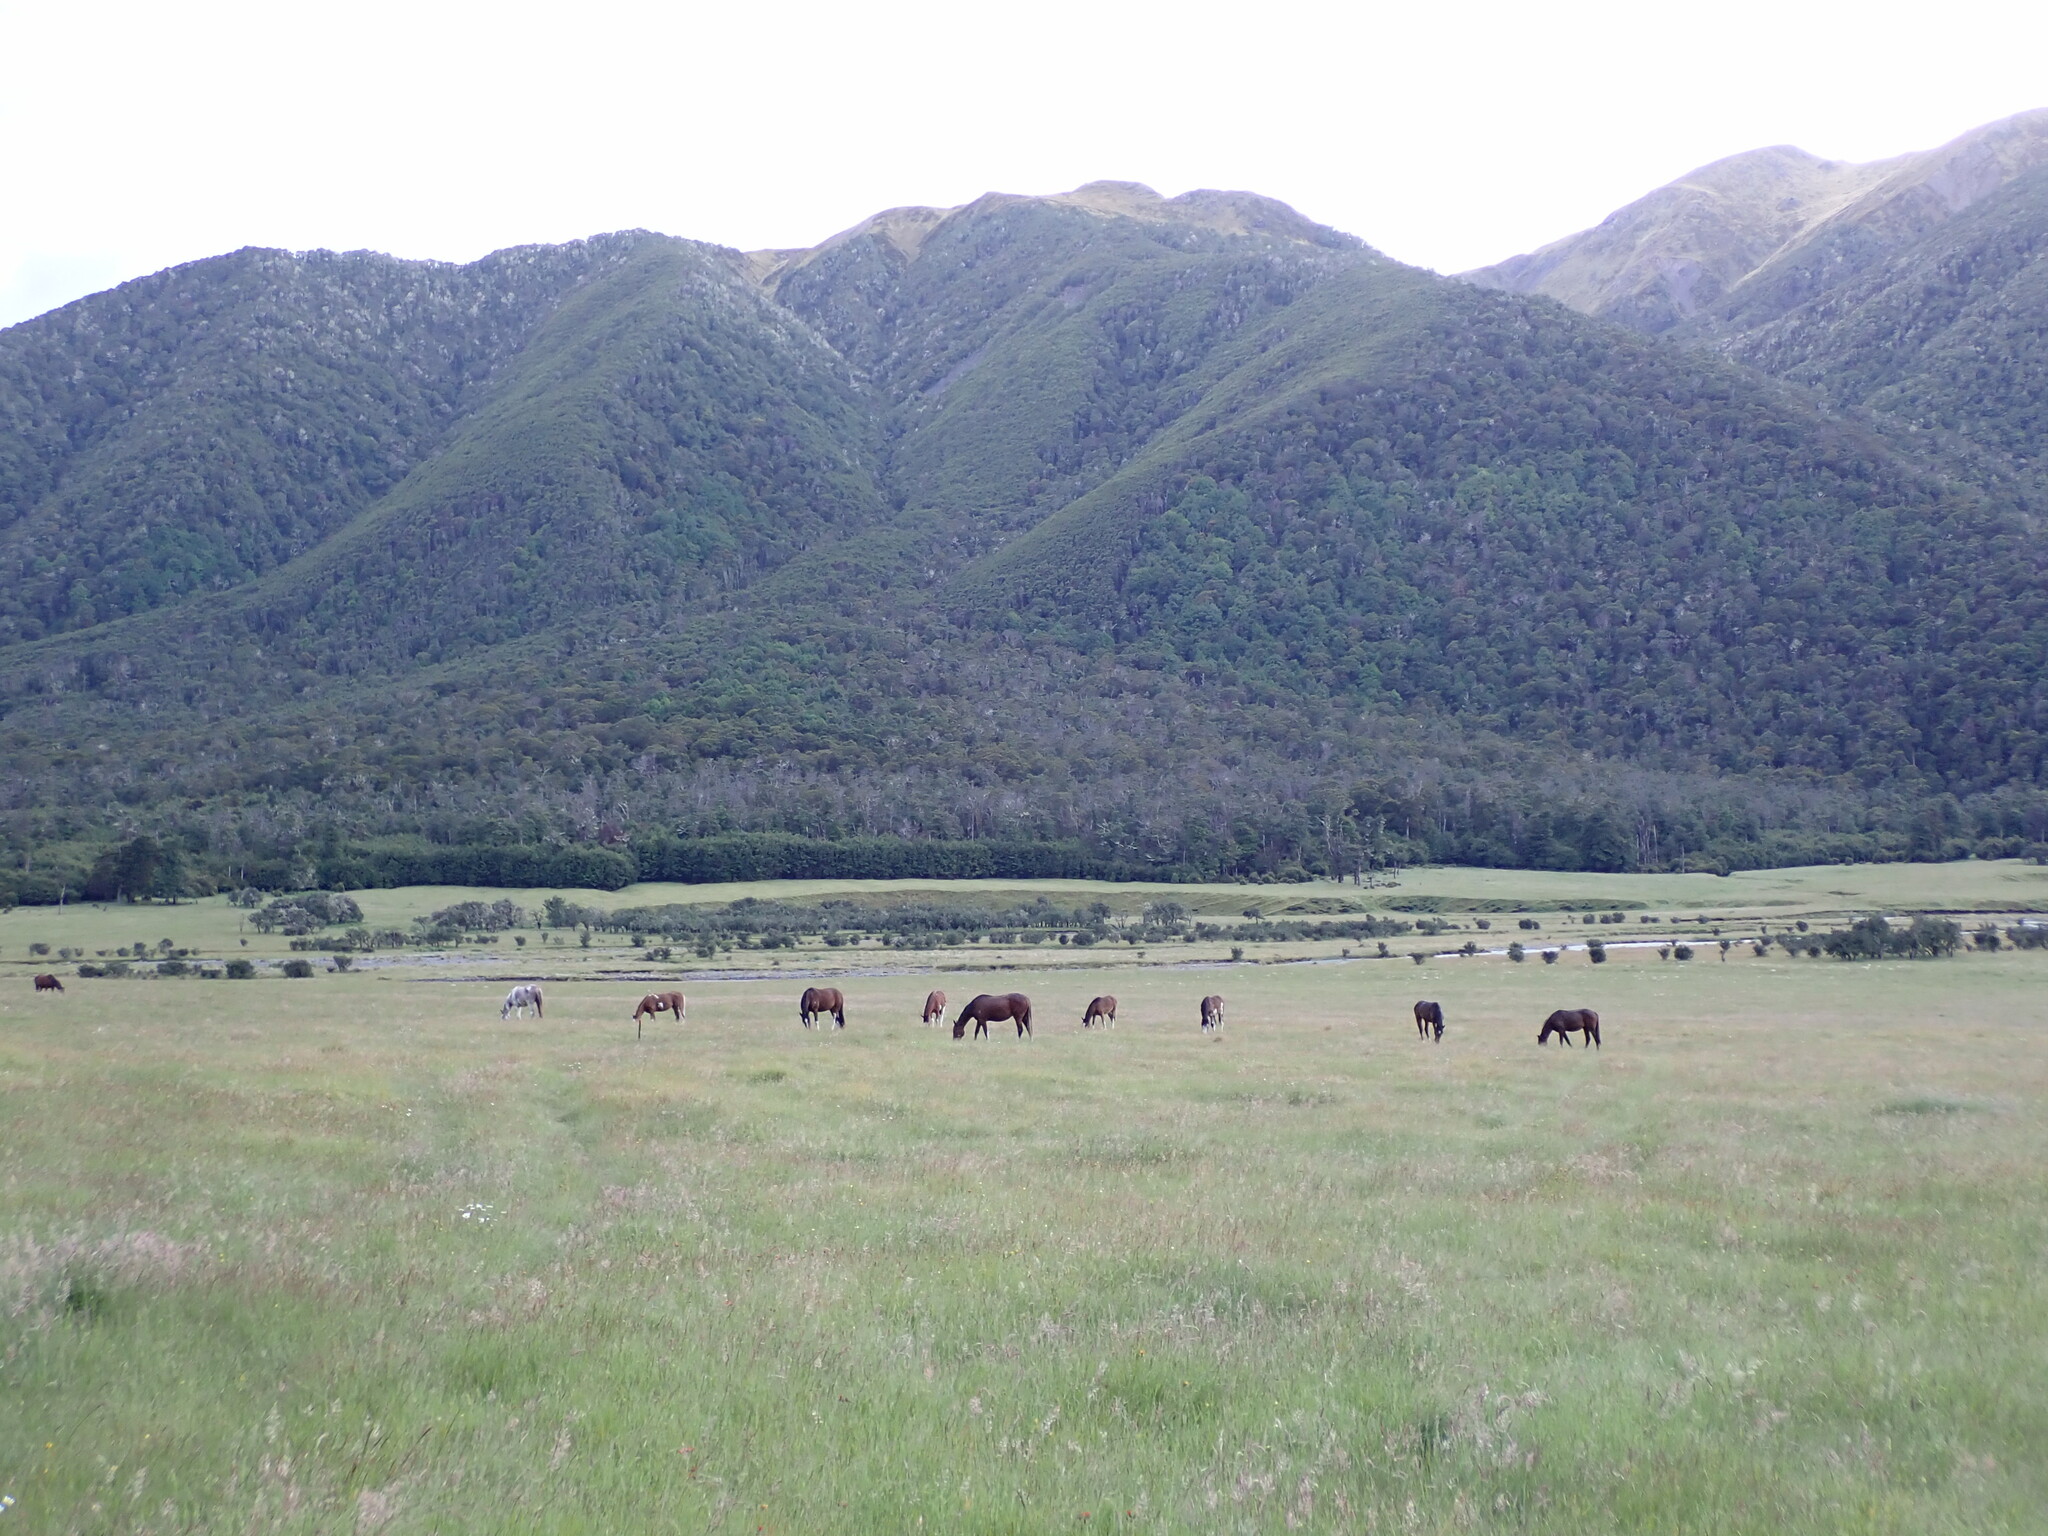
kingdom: Animalia
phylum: Chordata
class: Mammalia
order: Perissodactyla
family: Equidae
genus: Equus
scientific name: Equus caballus
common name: Horse
